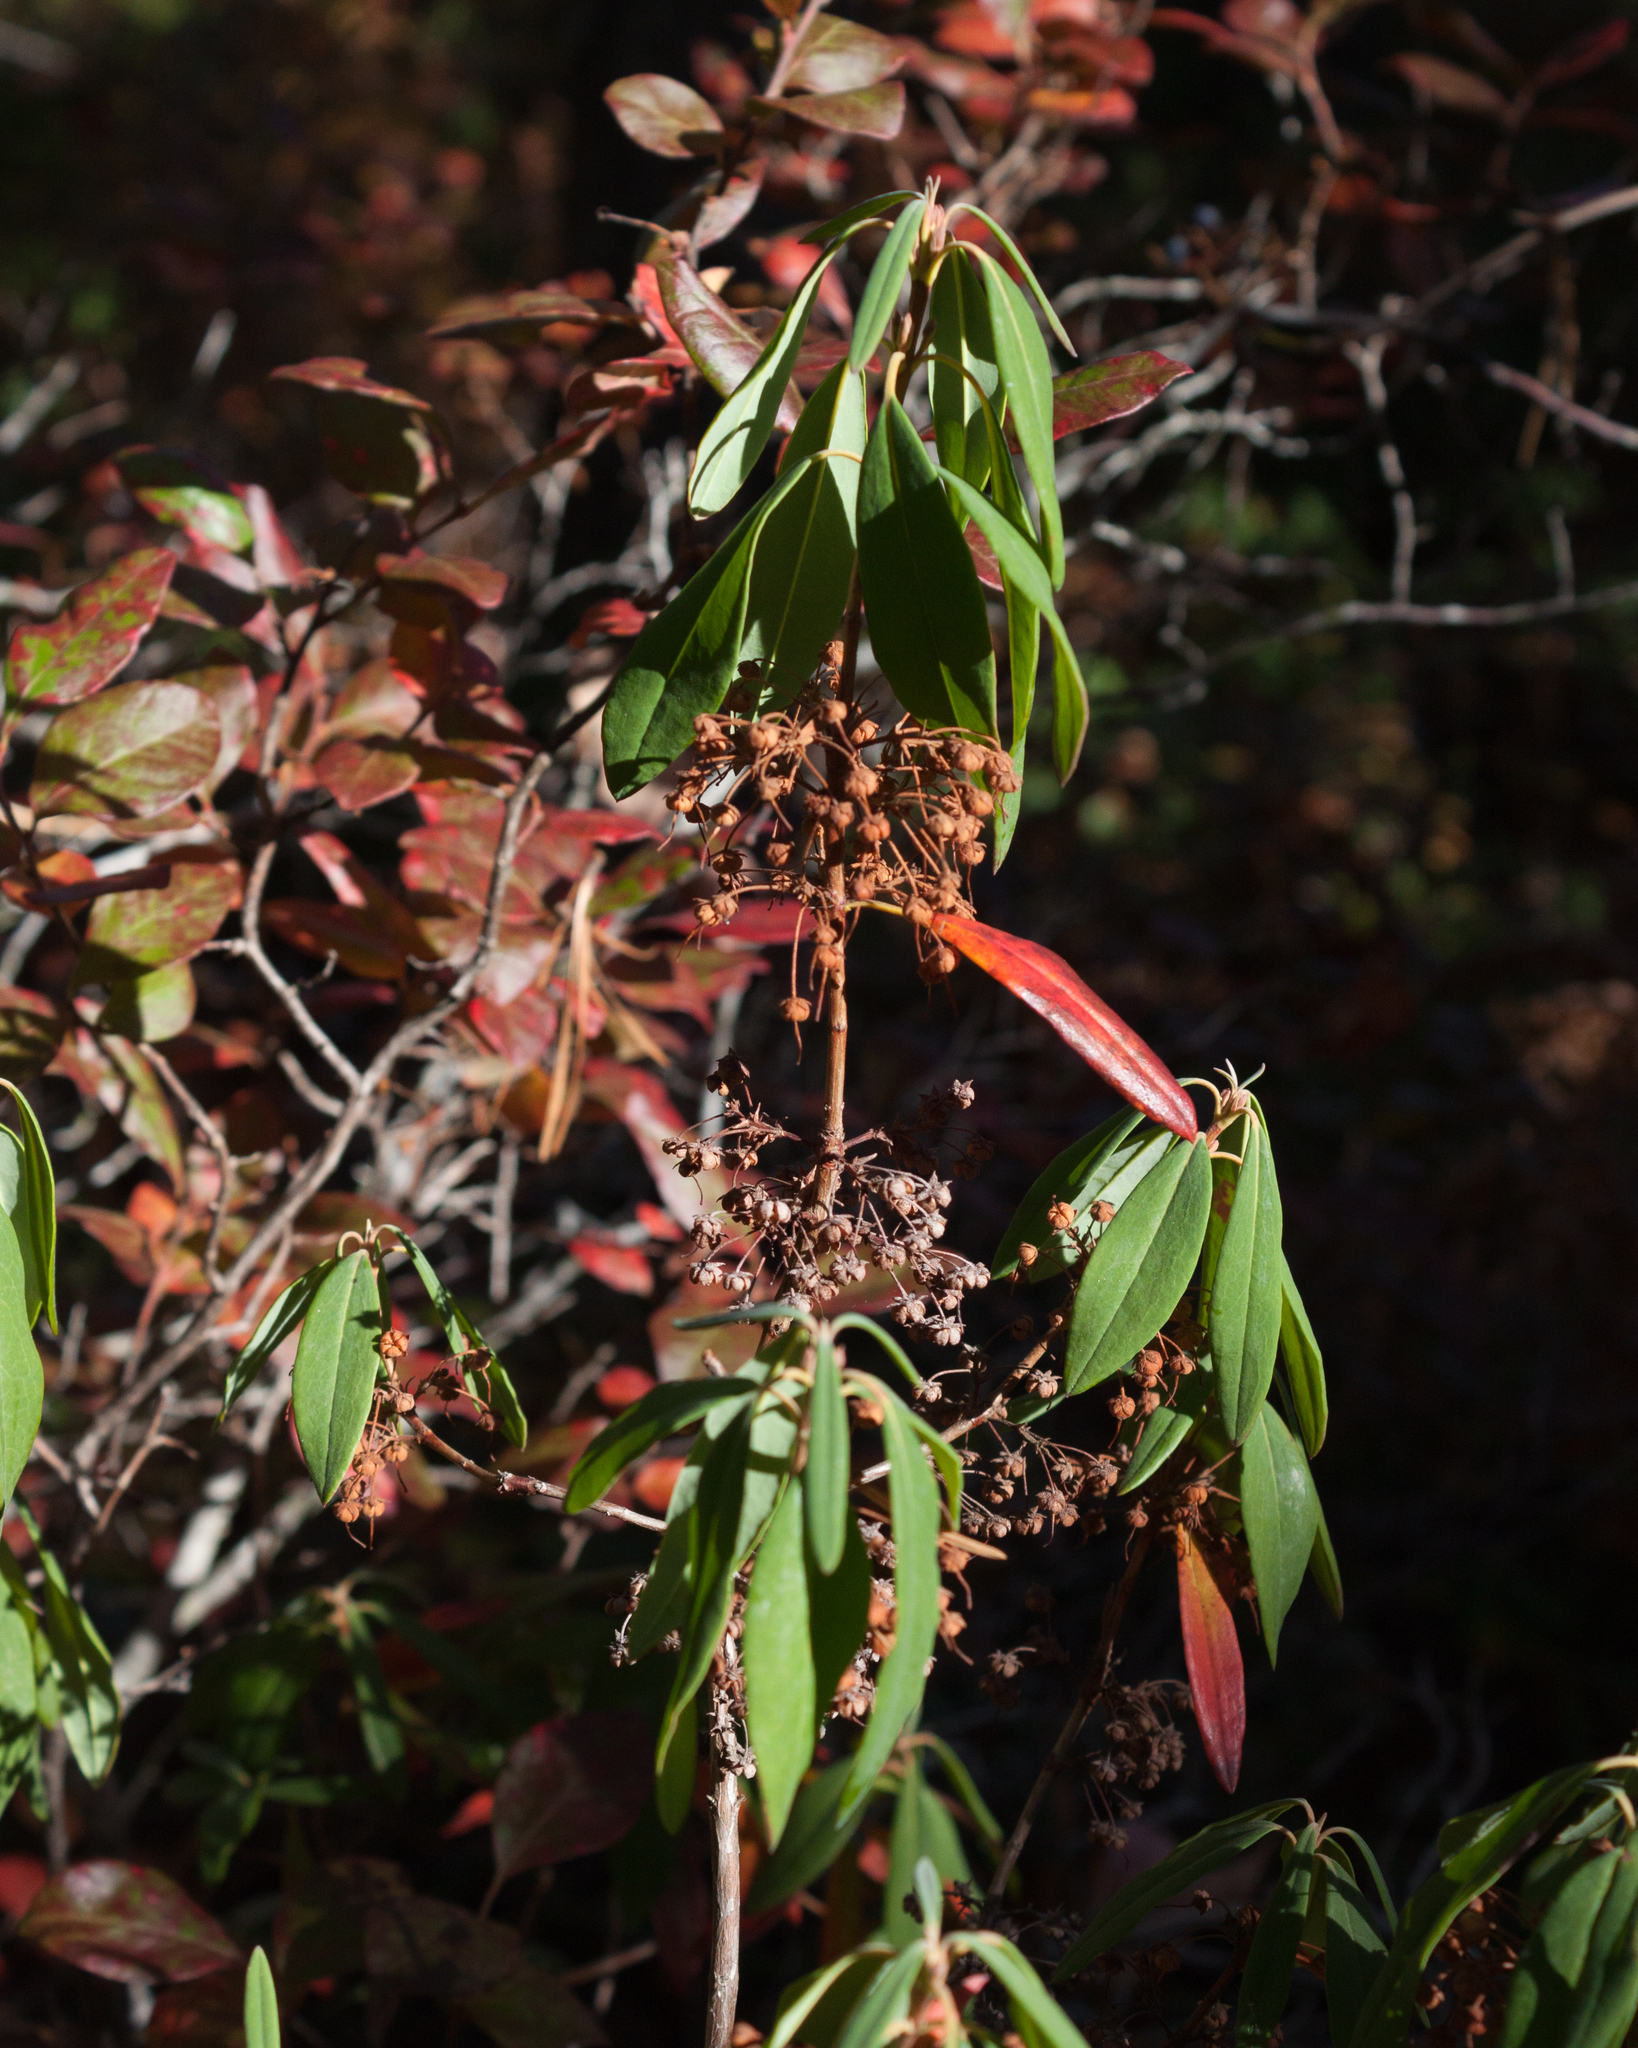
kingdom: Plantae
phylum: Tracheophyta
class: Magnoliopsida
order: Ericales
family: Ericaceae
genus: Kalmia
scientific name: Kalmia angustifolia
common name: Sheep-laurel
